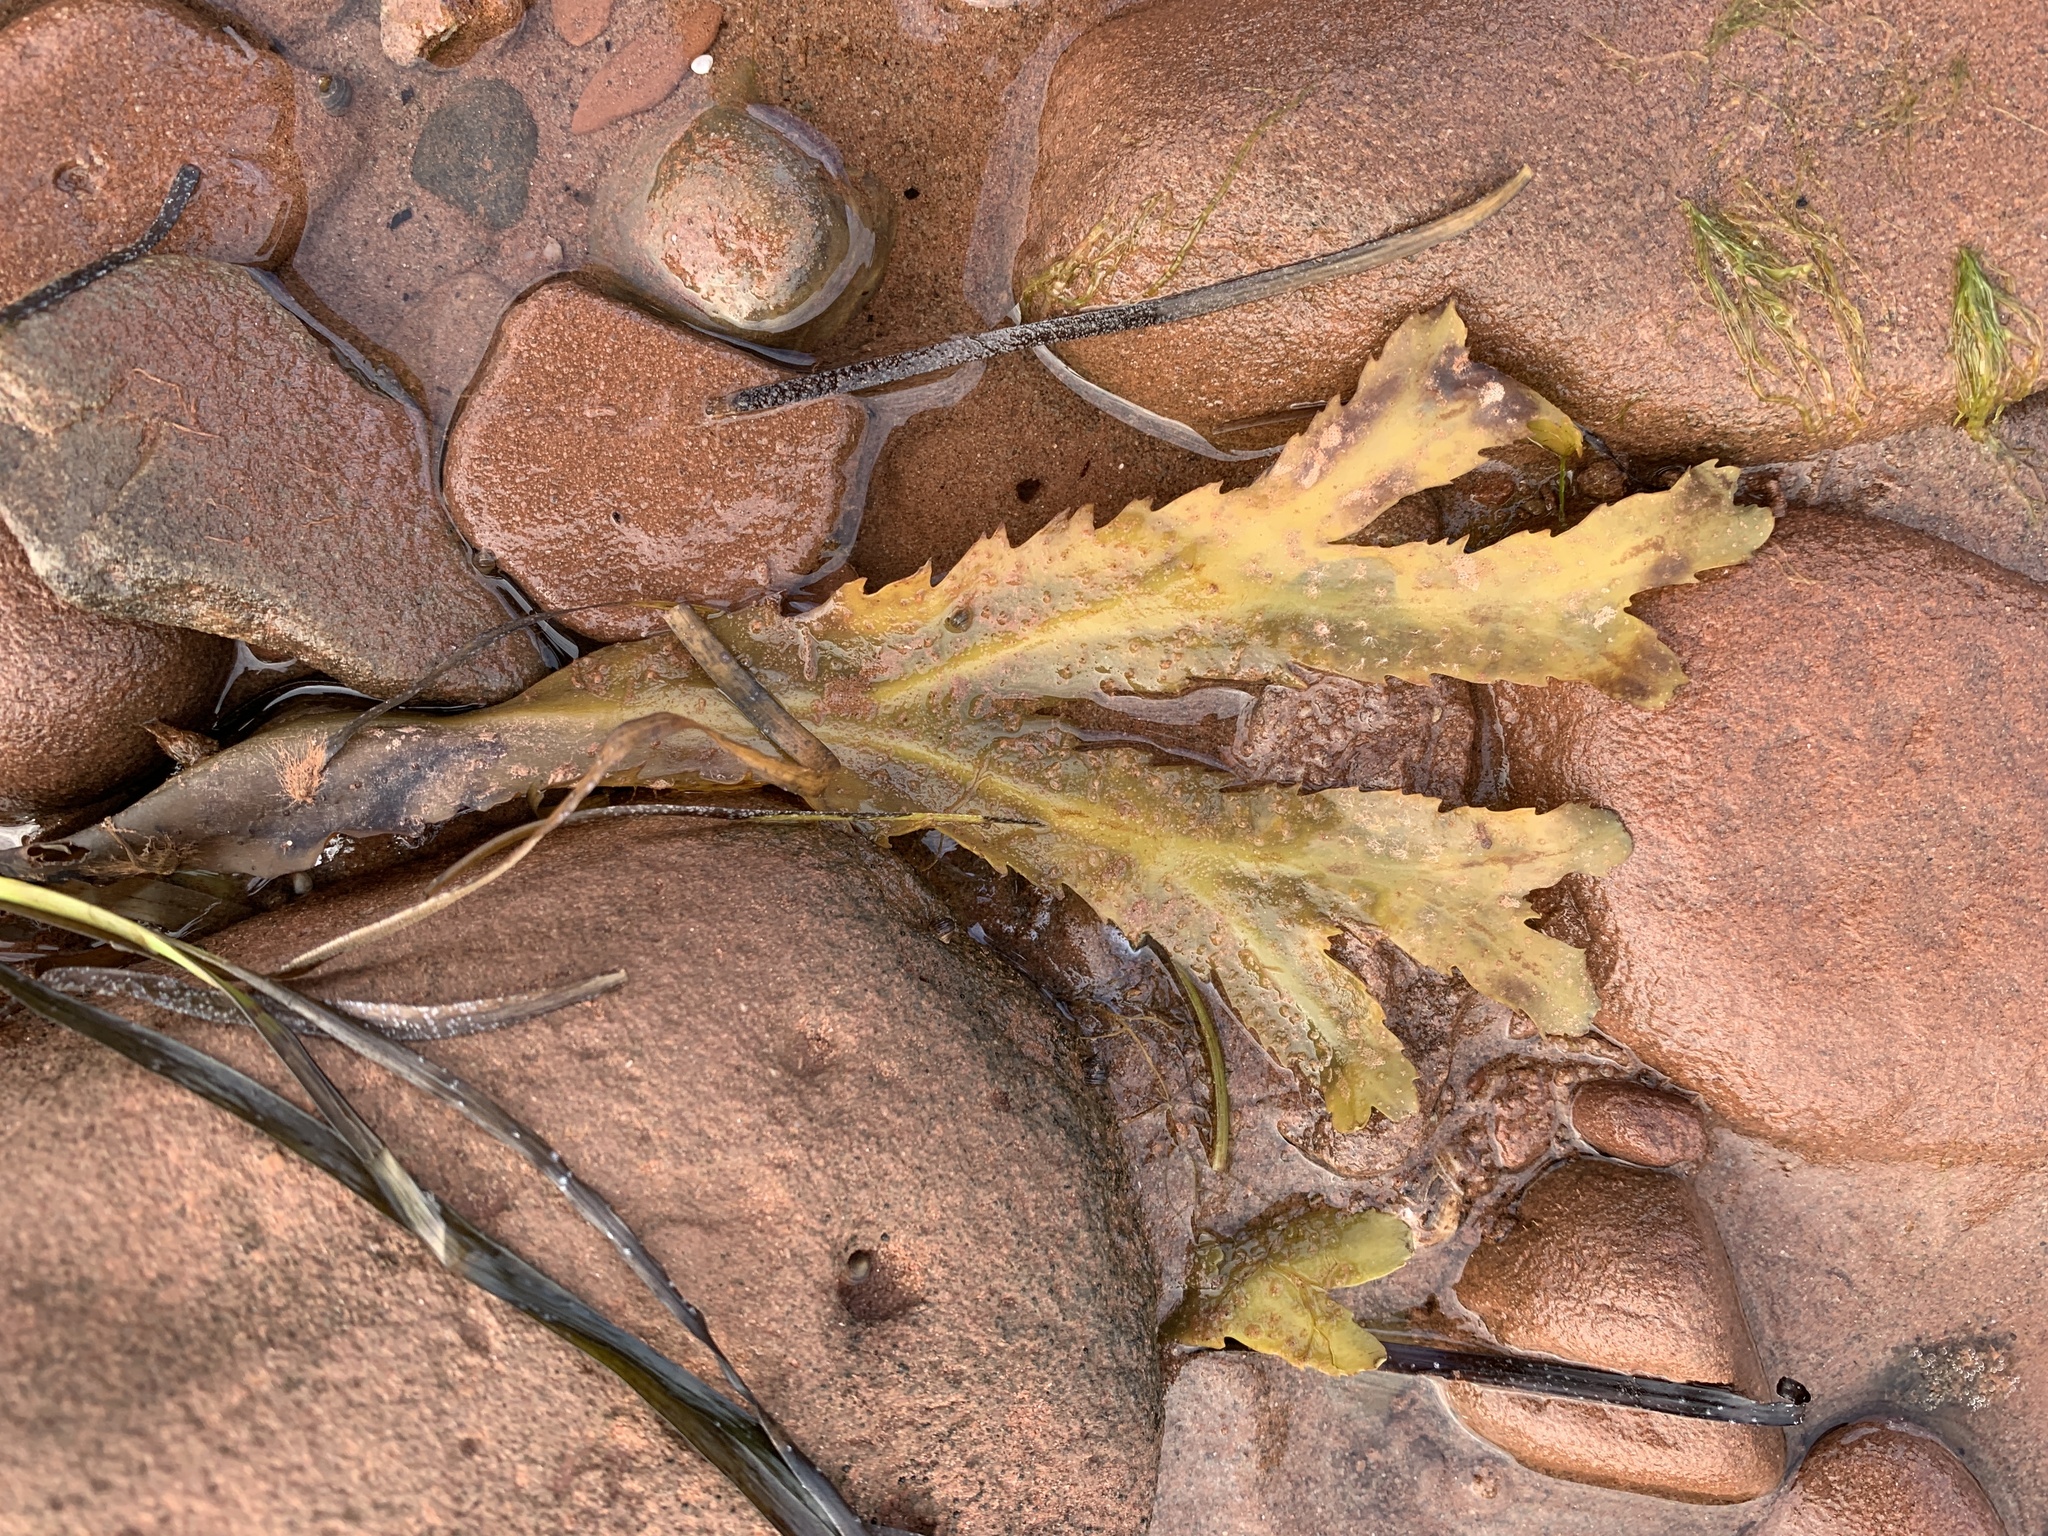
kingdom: Chromista
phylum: Ochrophyta
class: Phaeophyceae
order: Fucales
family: Fucaceae
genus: Fucus
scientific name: Fucus serratus
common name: Toothed wrack
